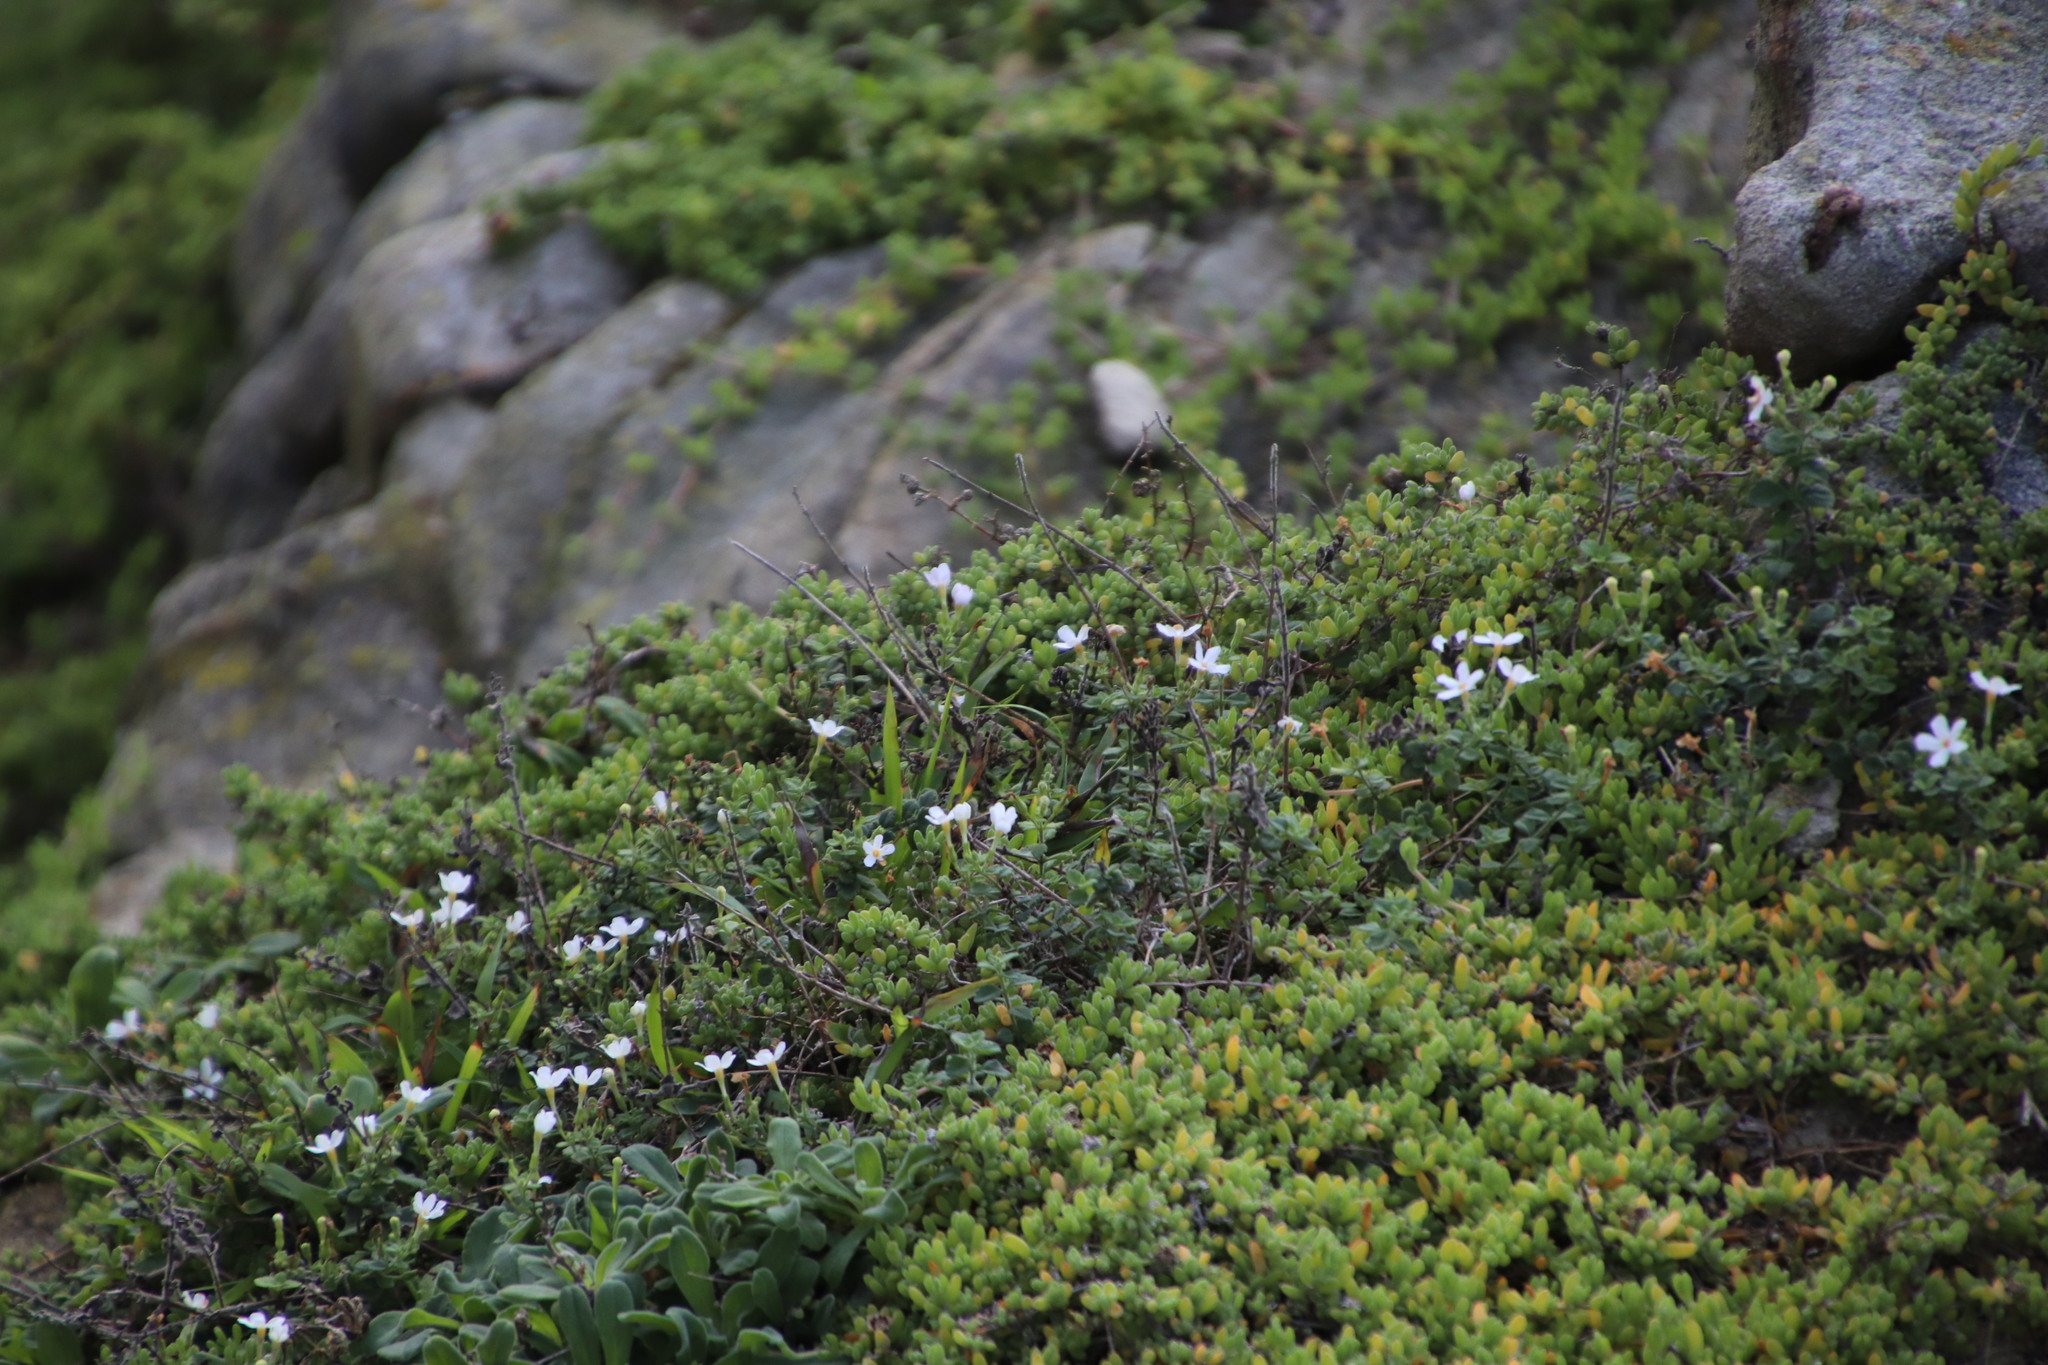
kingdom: Plantae
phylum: Tracheophyta
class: Magnoliopsida
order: Lamiales
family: Scrophulariaceae
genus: Chaenostoma
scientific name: Chaenostoma hispidum
